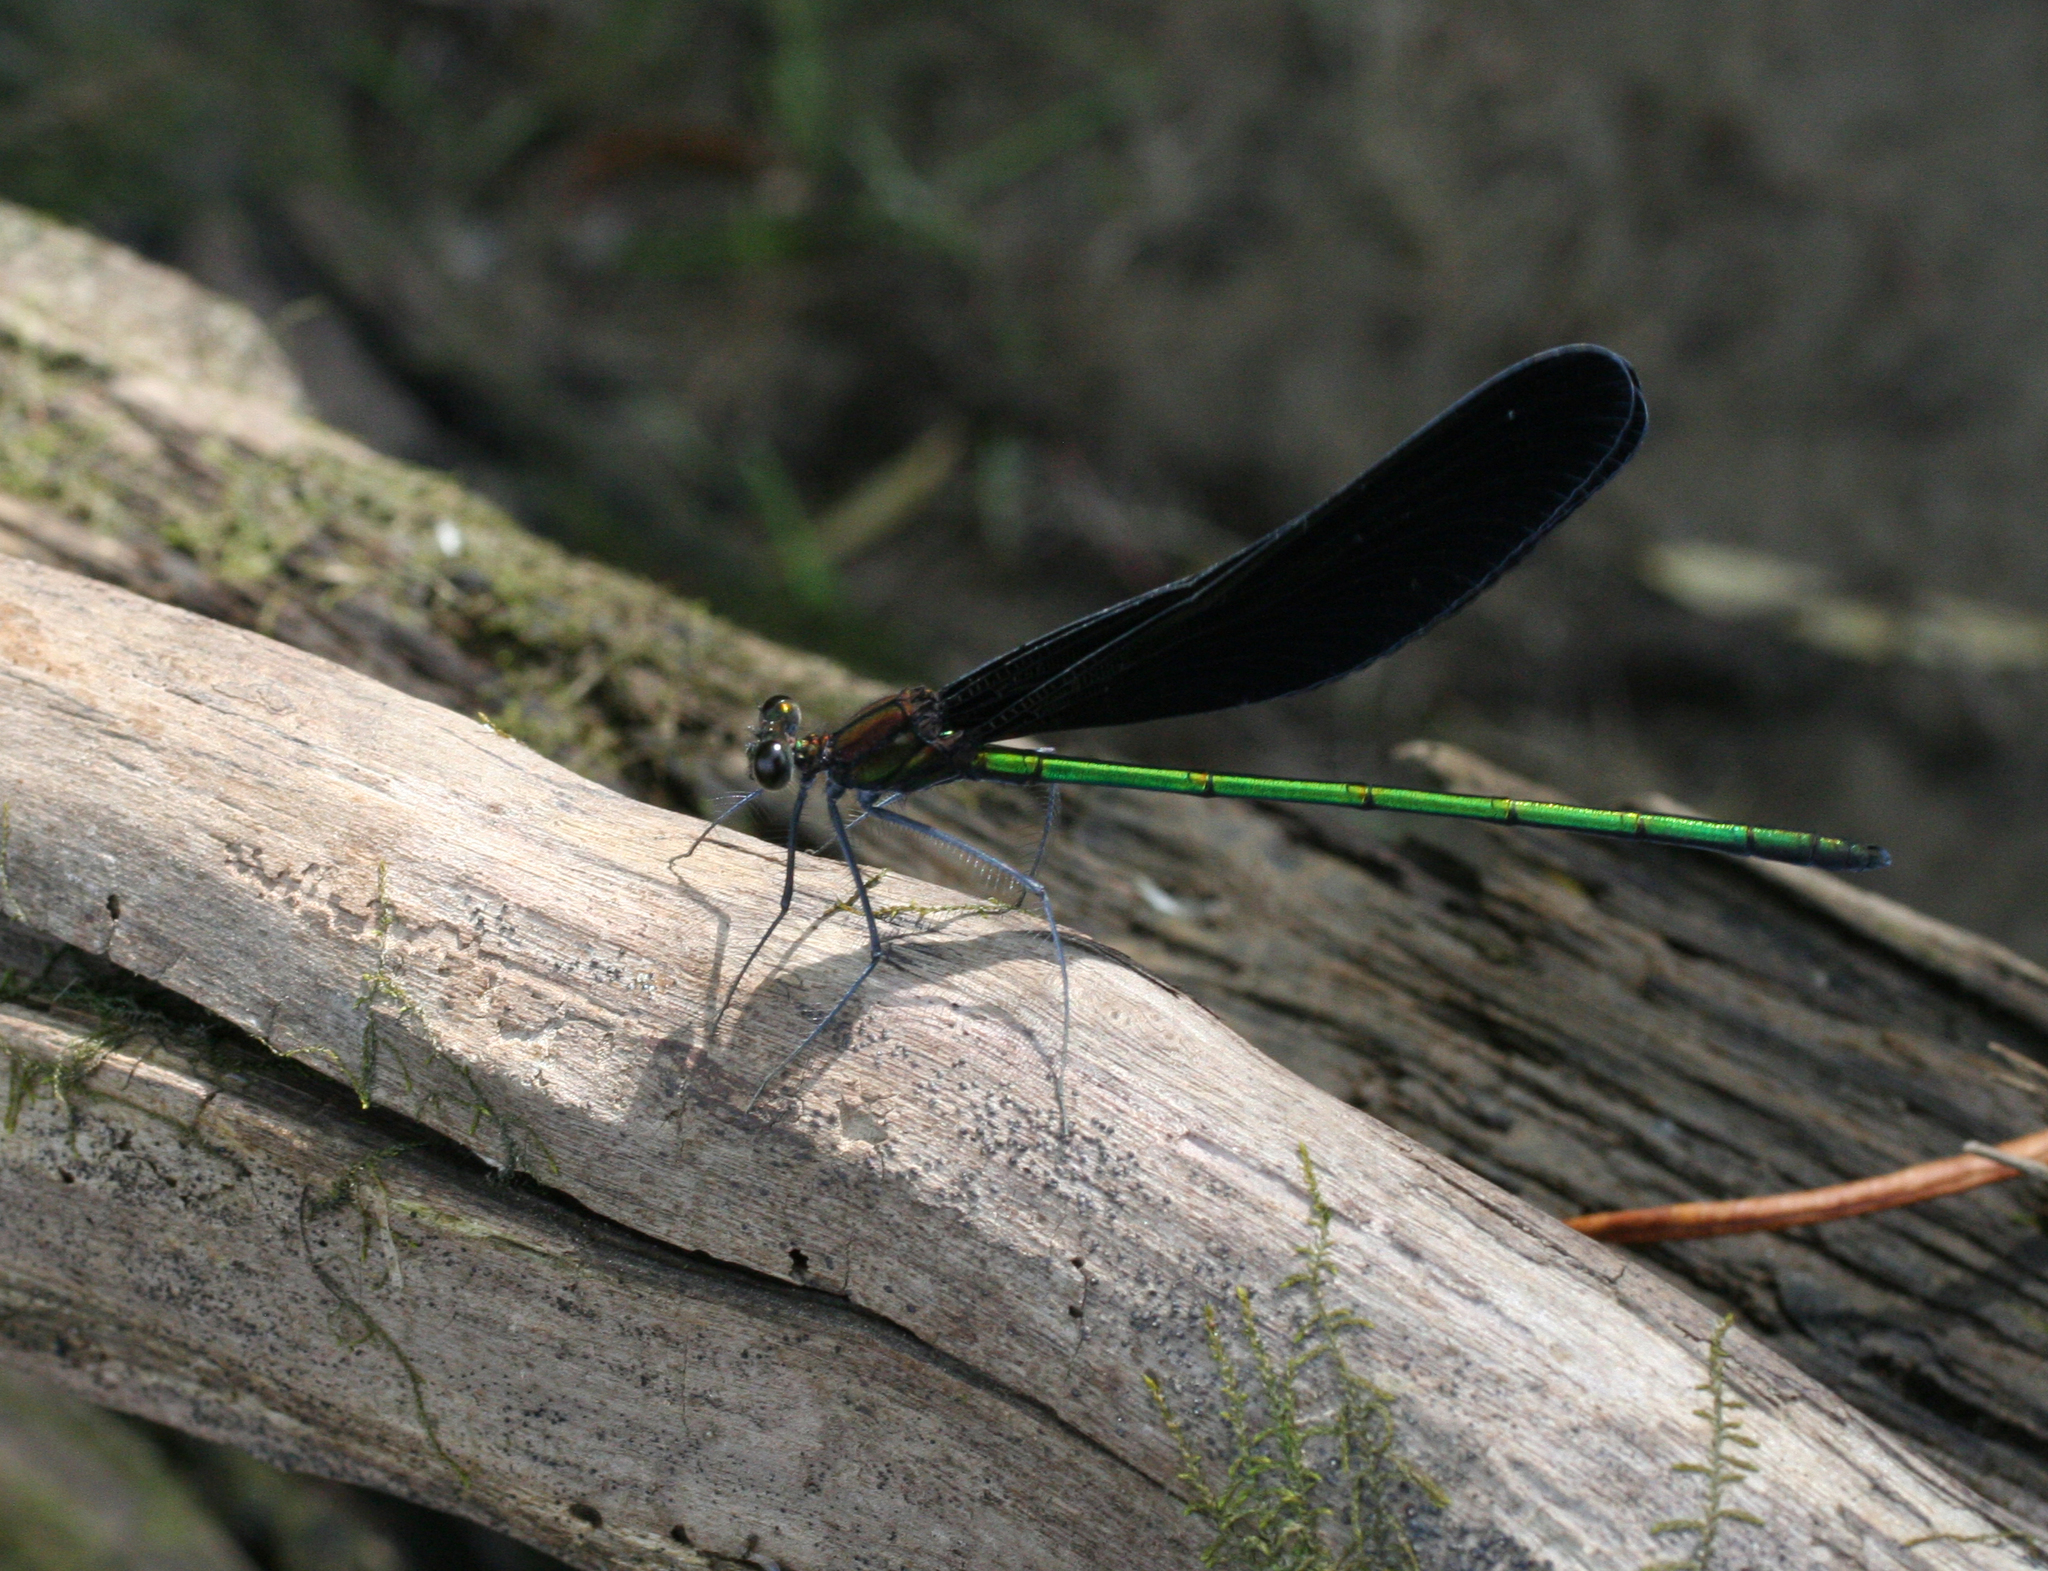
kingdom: Animalia
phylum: Arthropoda
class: Insecta
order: Odonata
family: Calopterygidae
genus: Atrocalopteryx
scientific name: Atrocalopteryx atrata
